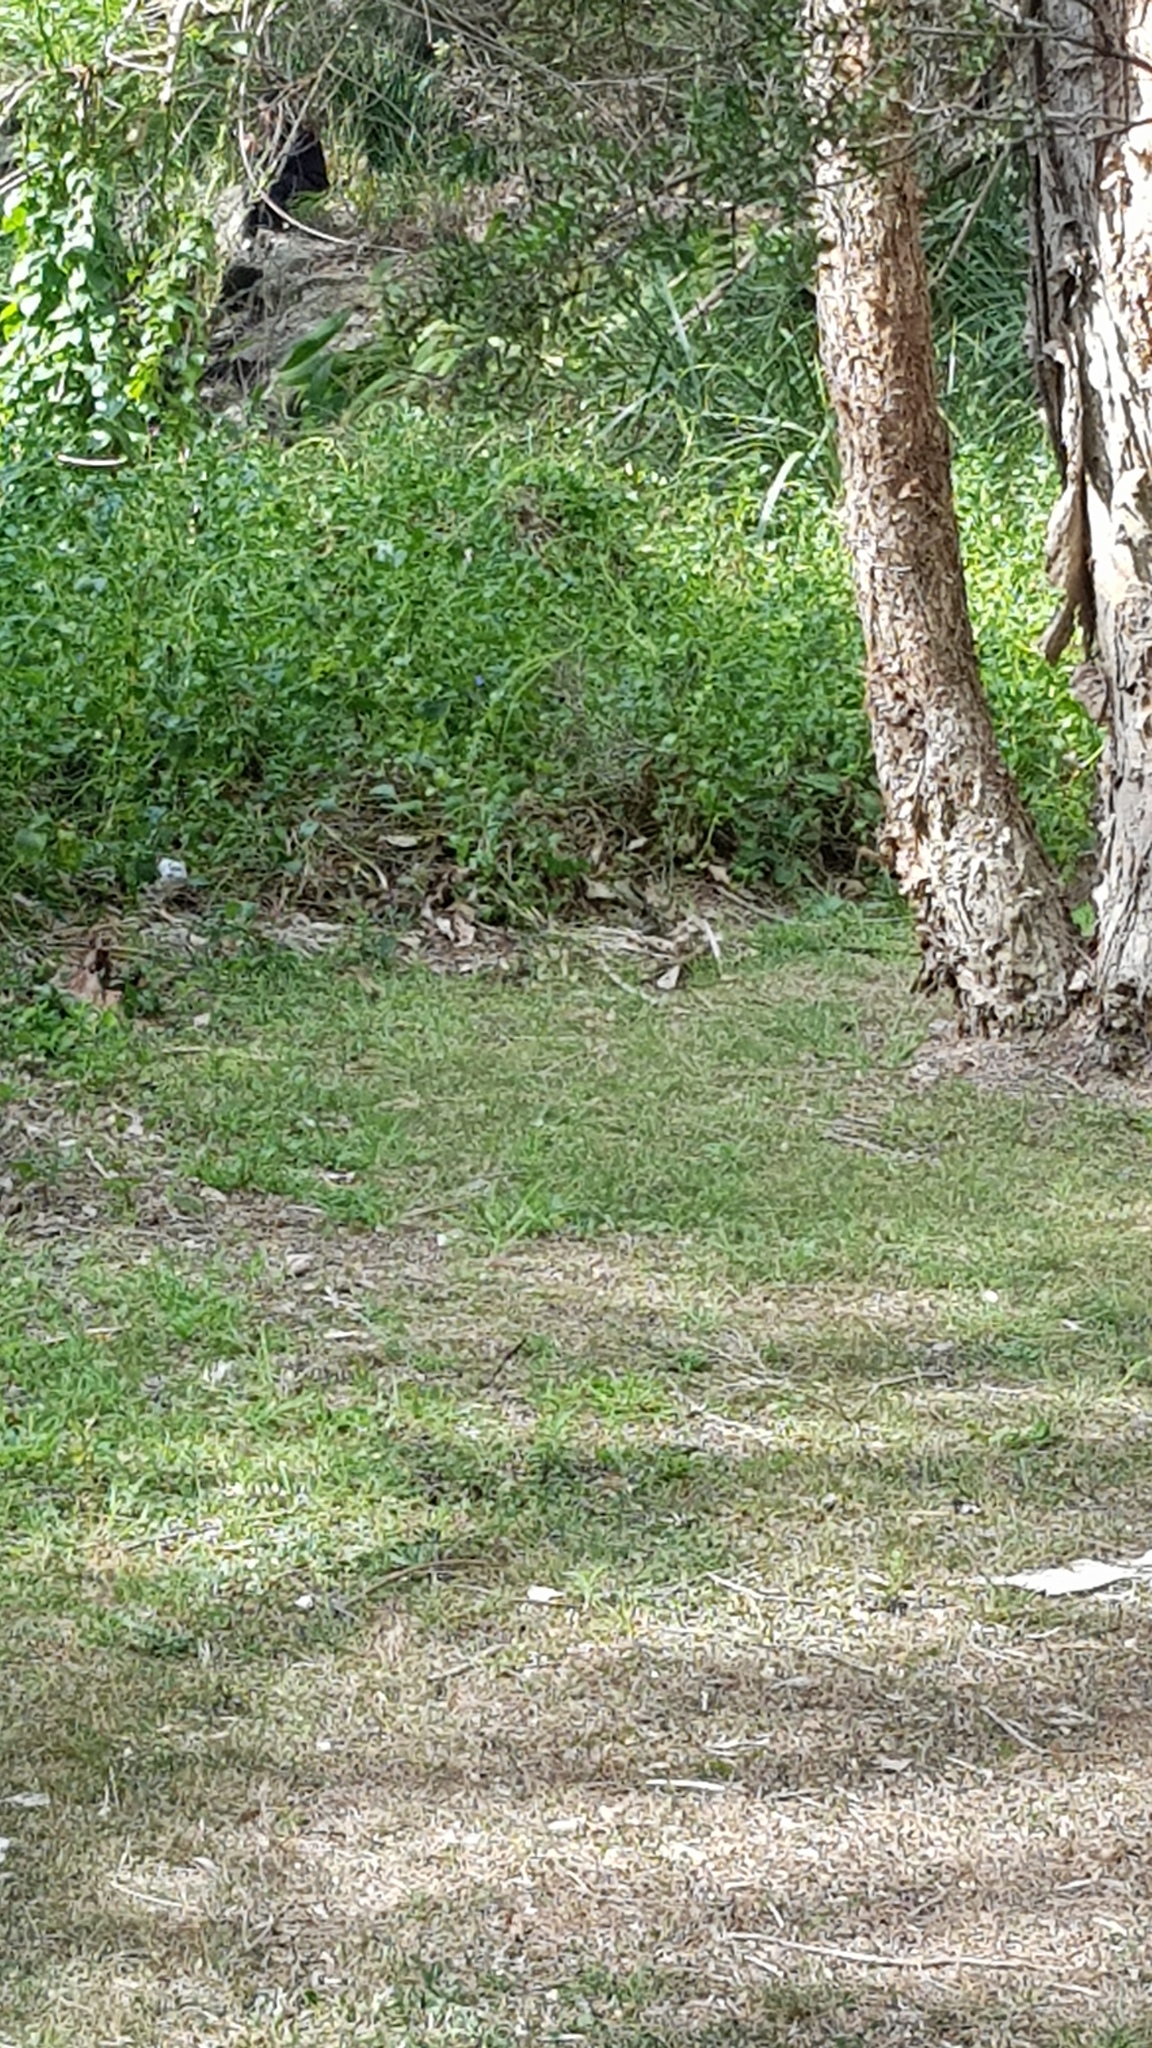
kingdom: Animalia
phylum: Chordata
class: Squamata
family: Agamidae
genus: Intellagama
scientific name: Intellagama lesueurii
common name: Eastern water dragon
